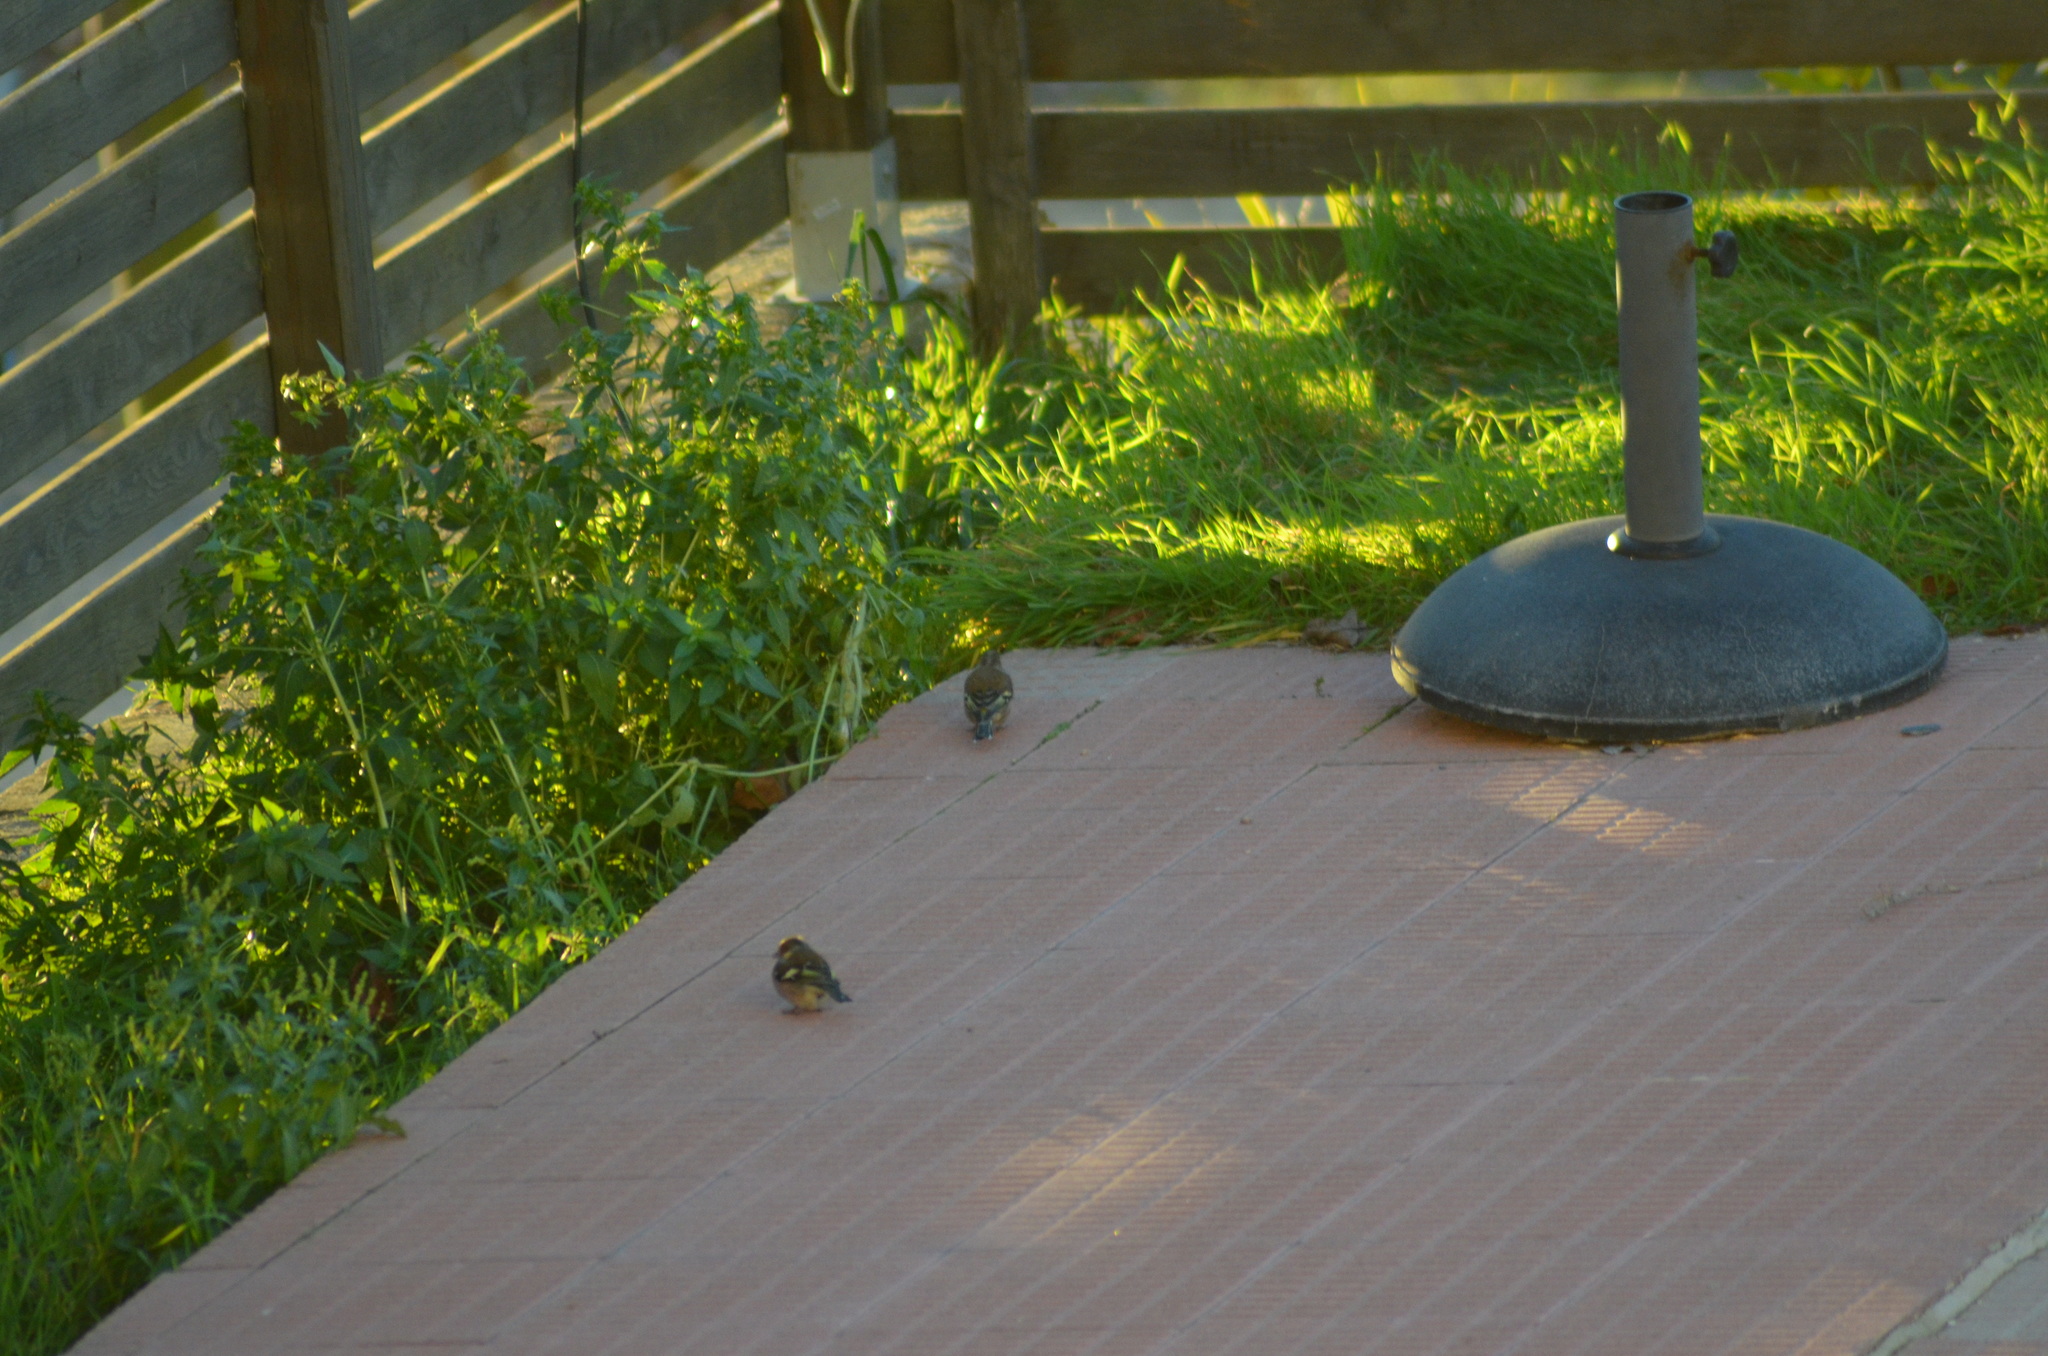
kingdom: Animalia
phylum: Chordata
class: Aves
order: Passeriformes
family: Fringillidae
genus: Fringilla
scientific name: Fringilla coelebs
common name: Common chaffinch
